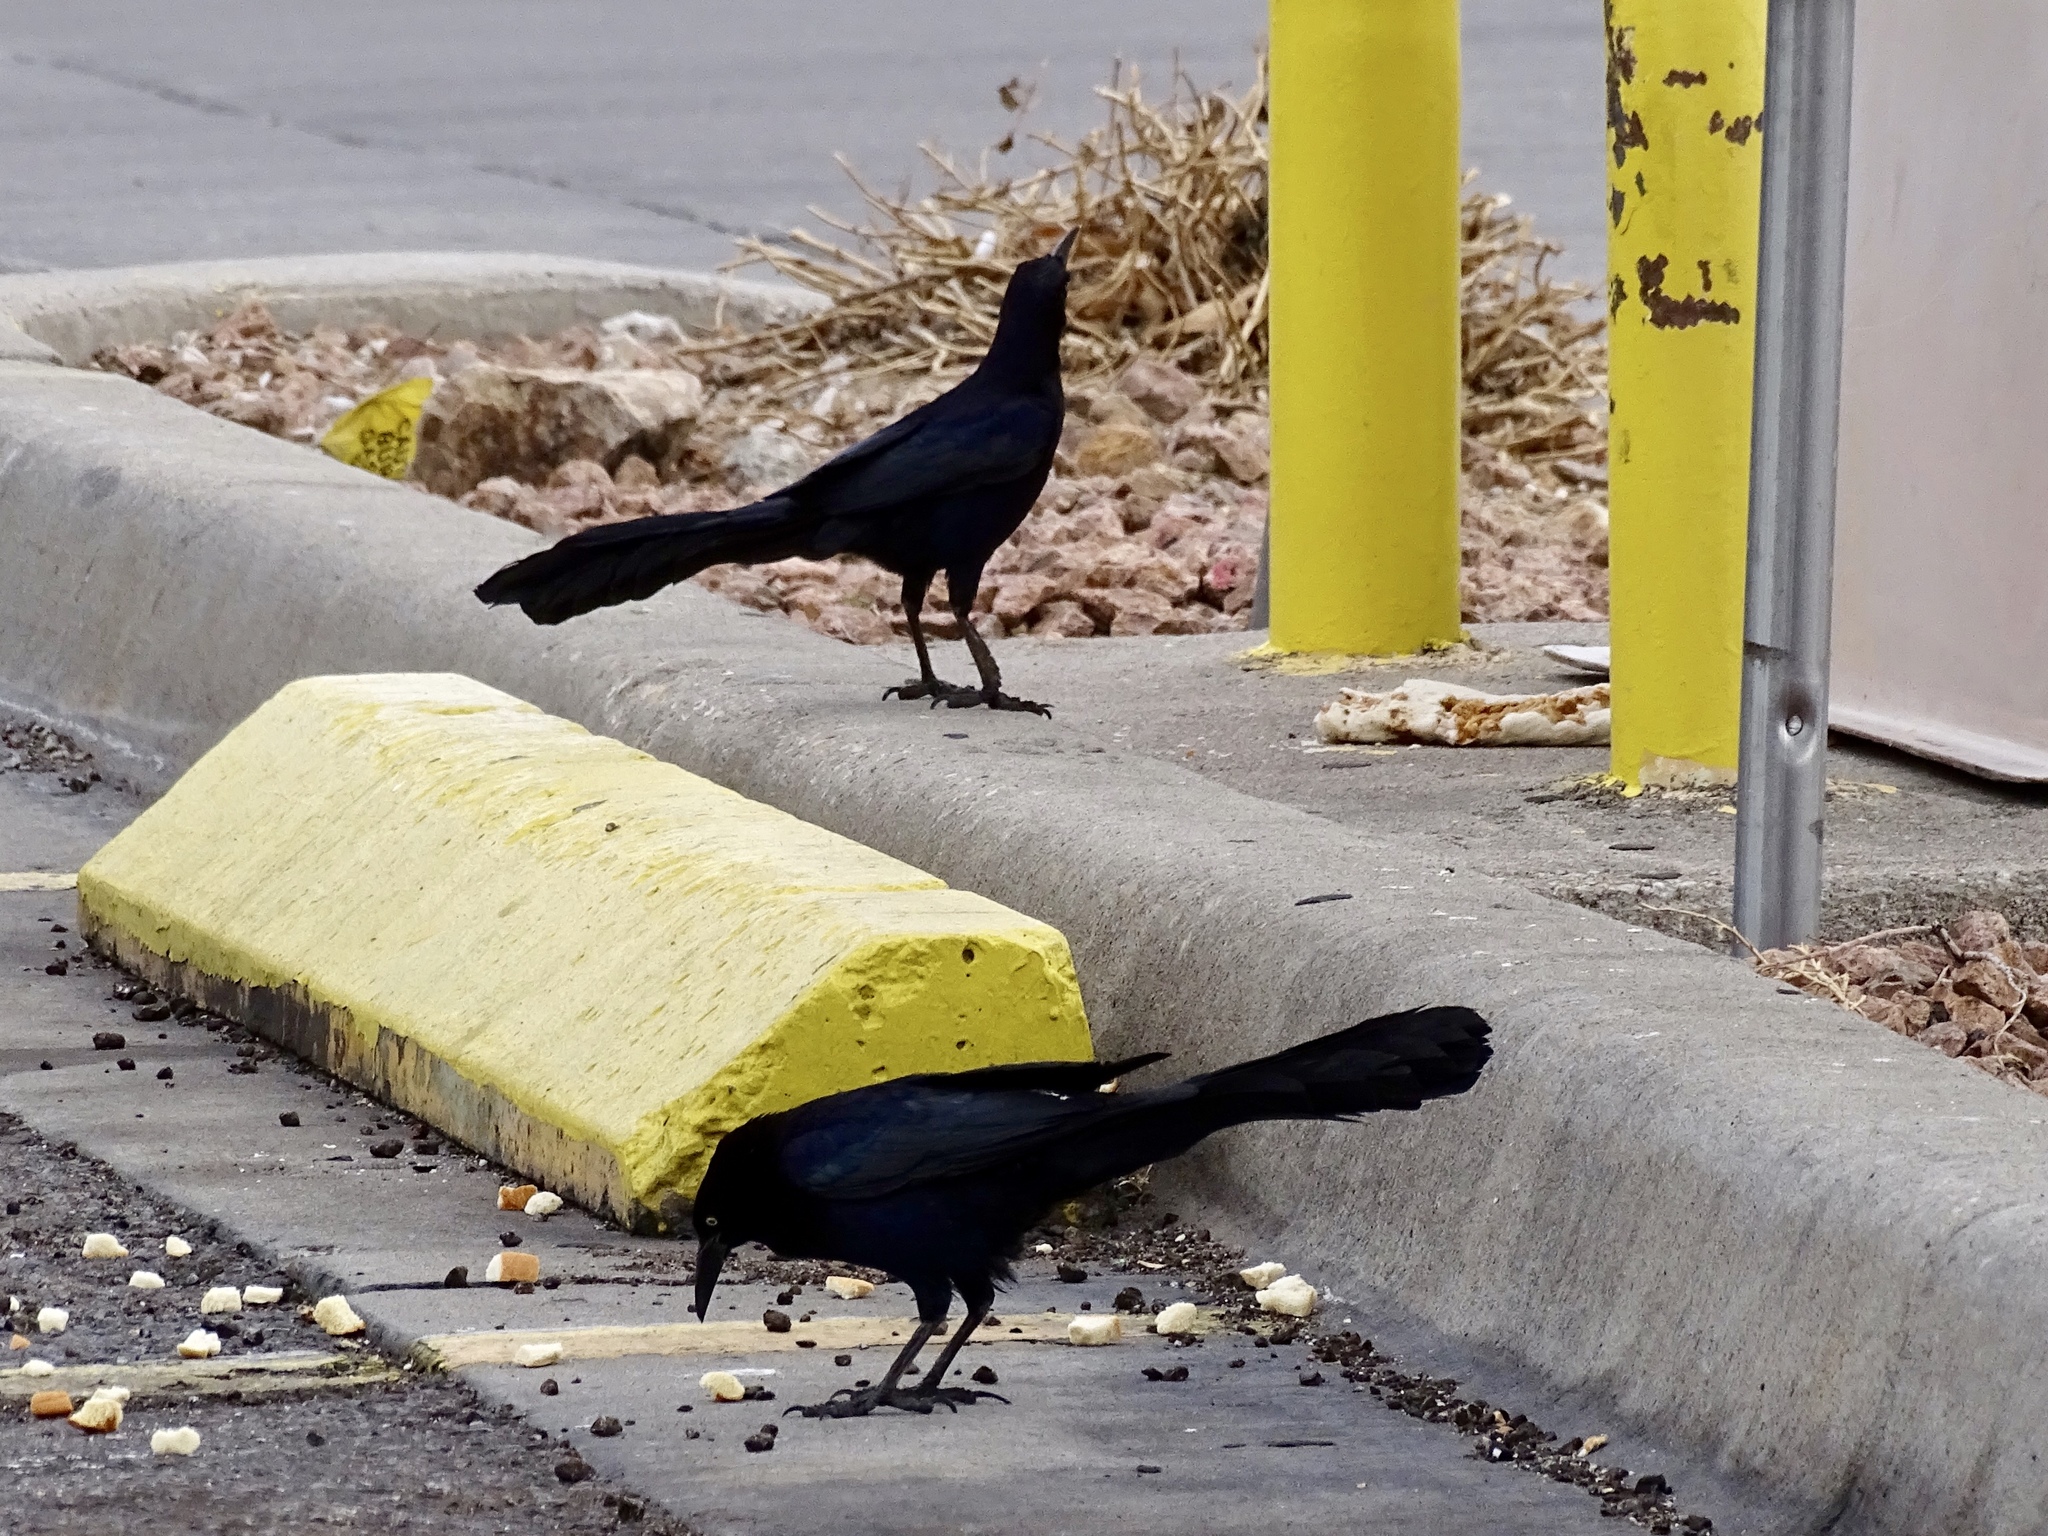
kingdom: Animalia
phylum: Chordata
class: Aves
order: Passeriformes
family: Icteridae
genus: Quiscalus
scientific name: Quiscalus mexicanus
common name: Great-tailed grackle
